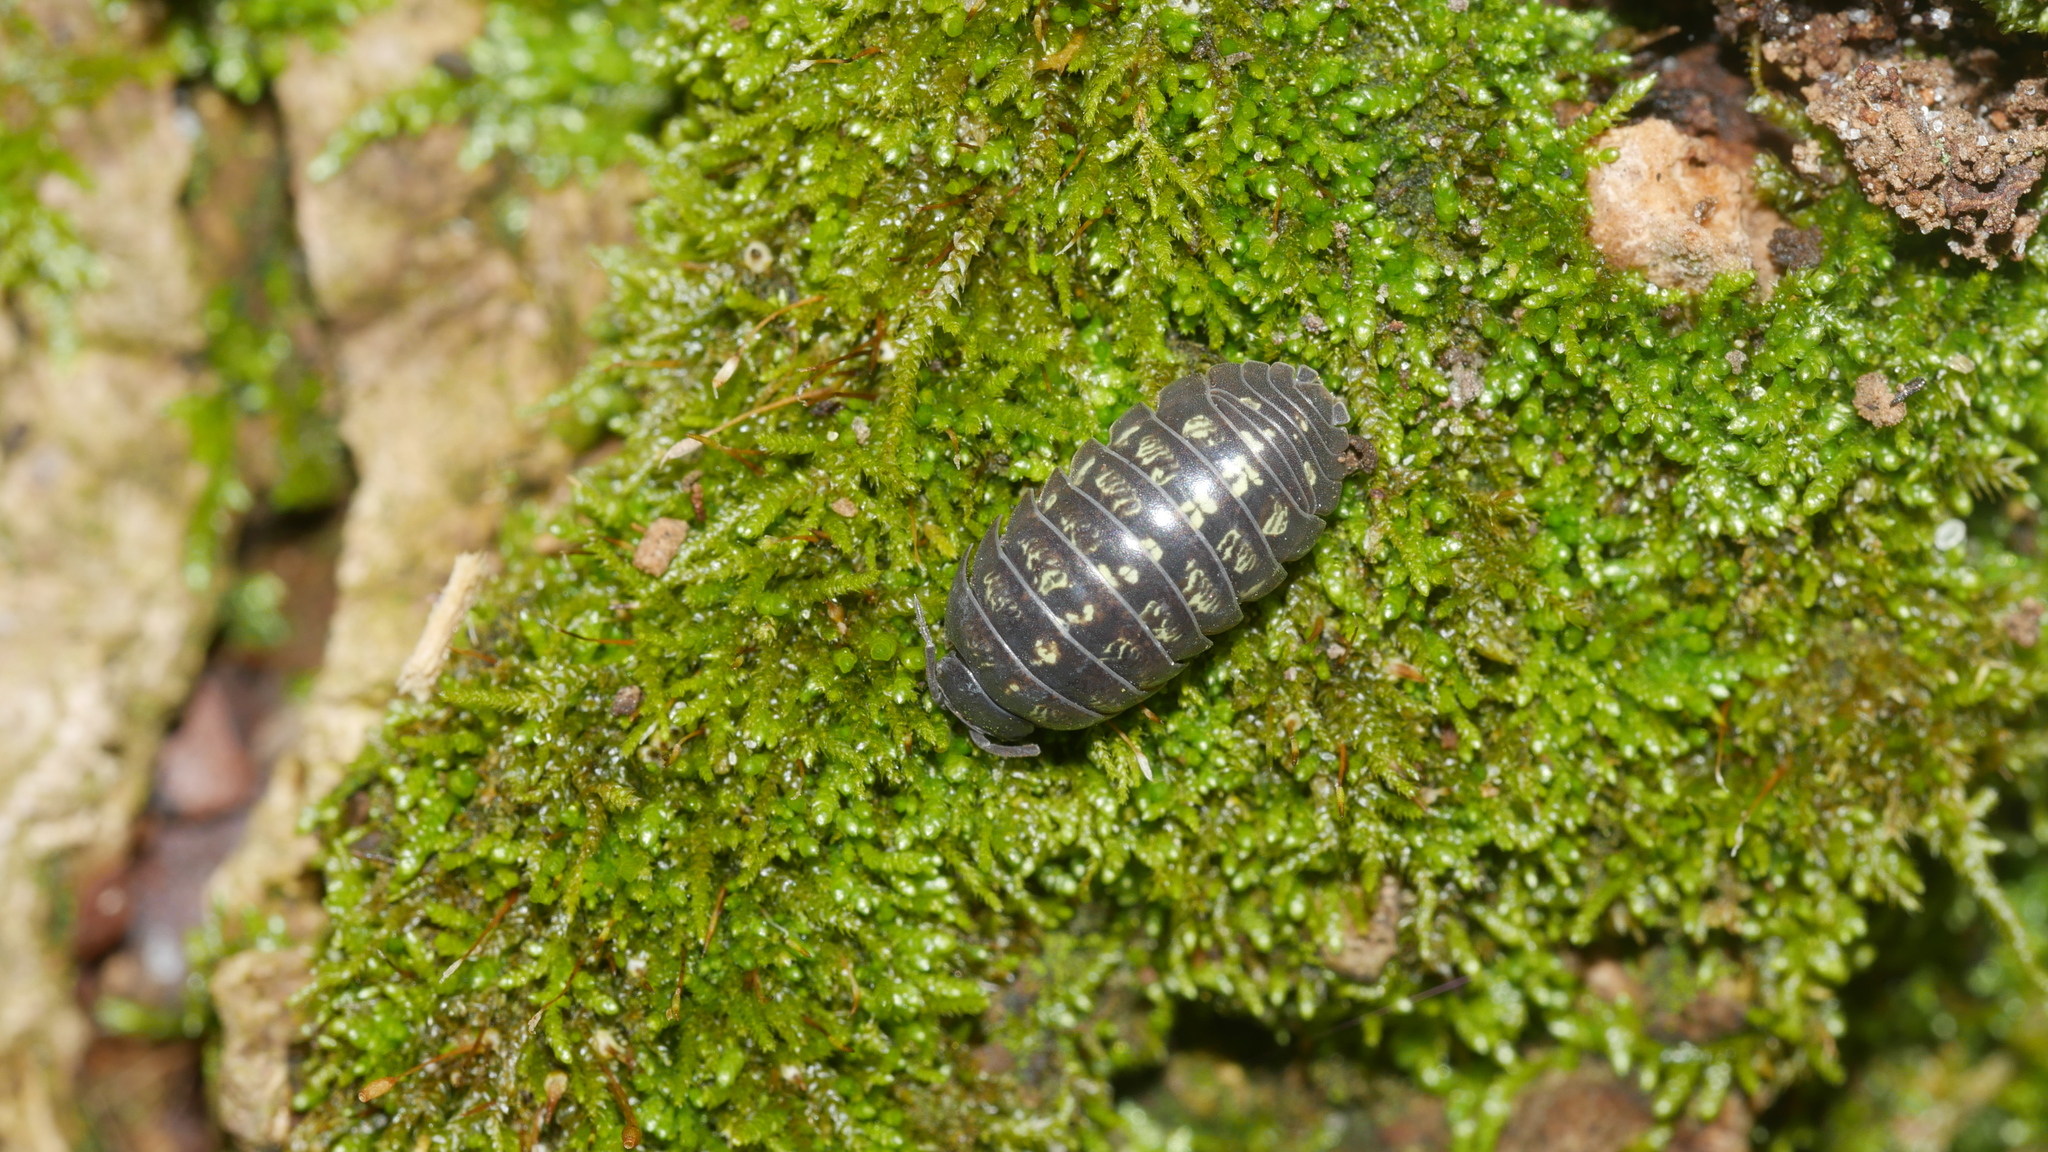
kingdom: Animalia
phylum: Arthropoda
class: Malacostraca
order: Isopoda
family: Armadillidiidae
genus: Armadillidium
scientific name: Armadillidium vulgare
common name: Common pill woodlouse
